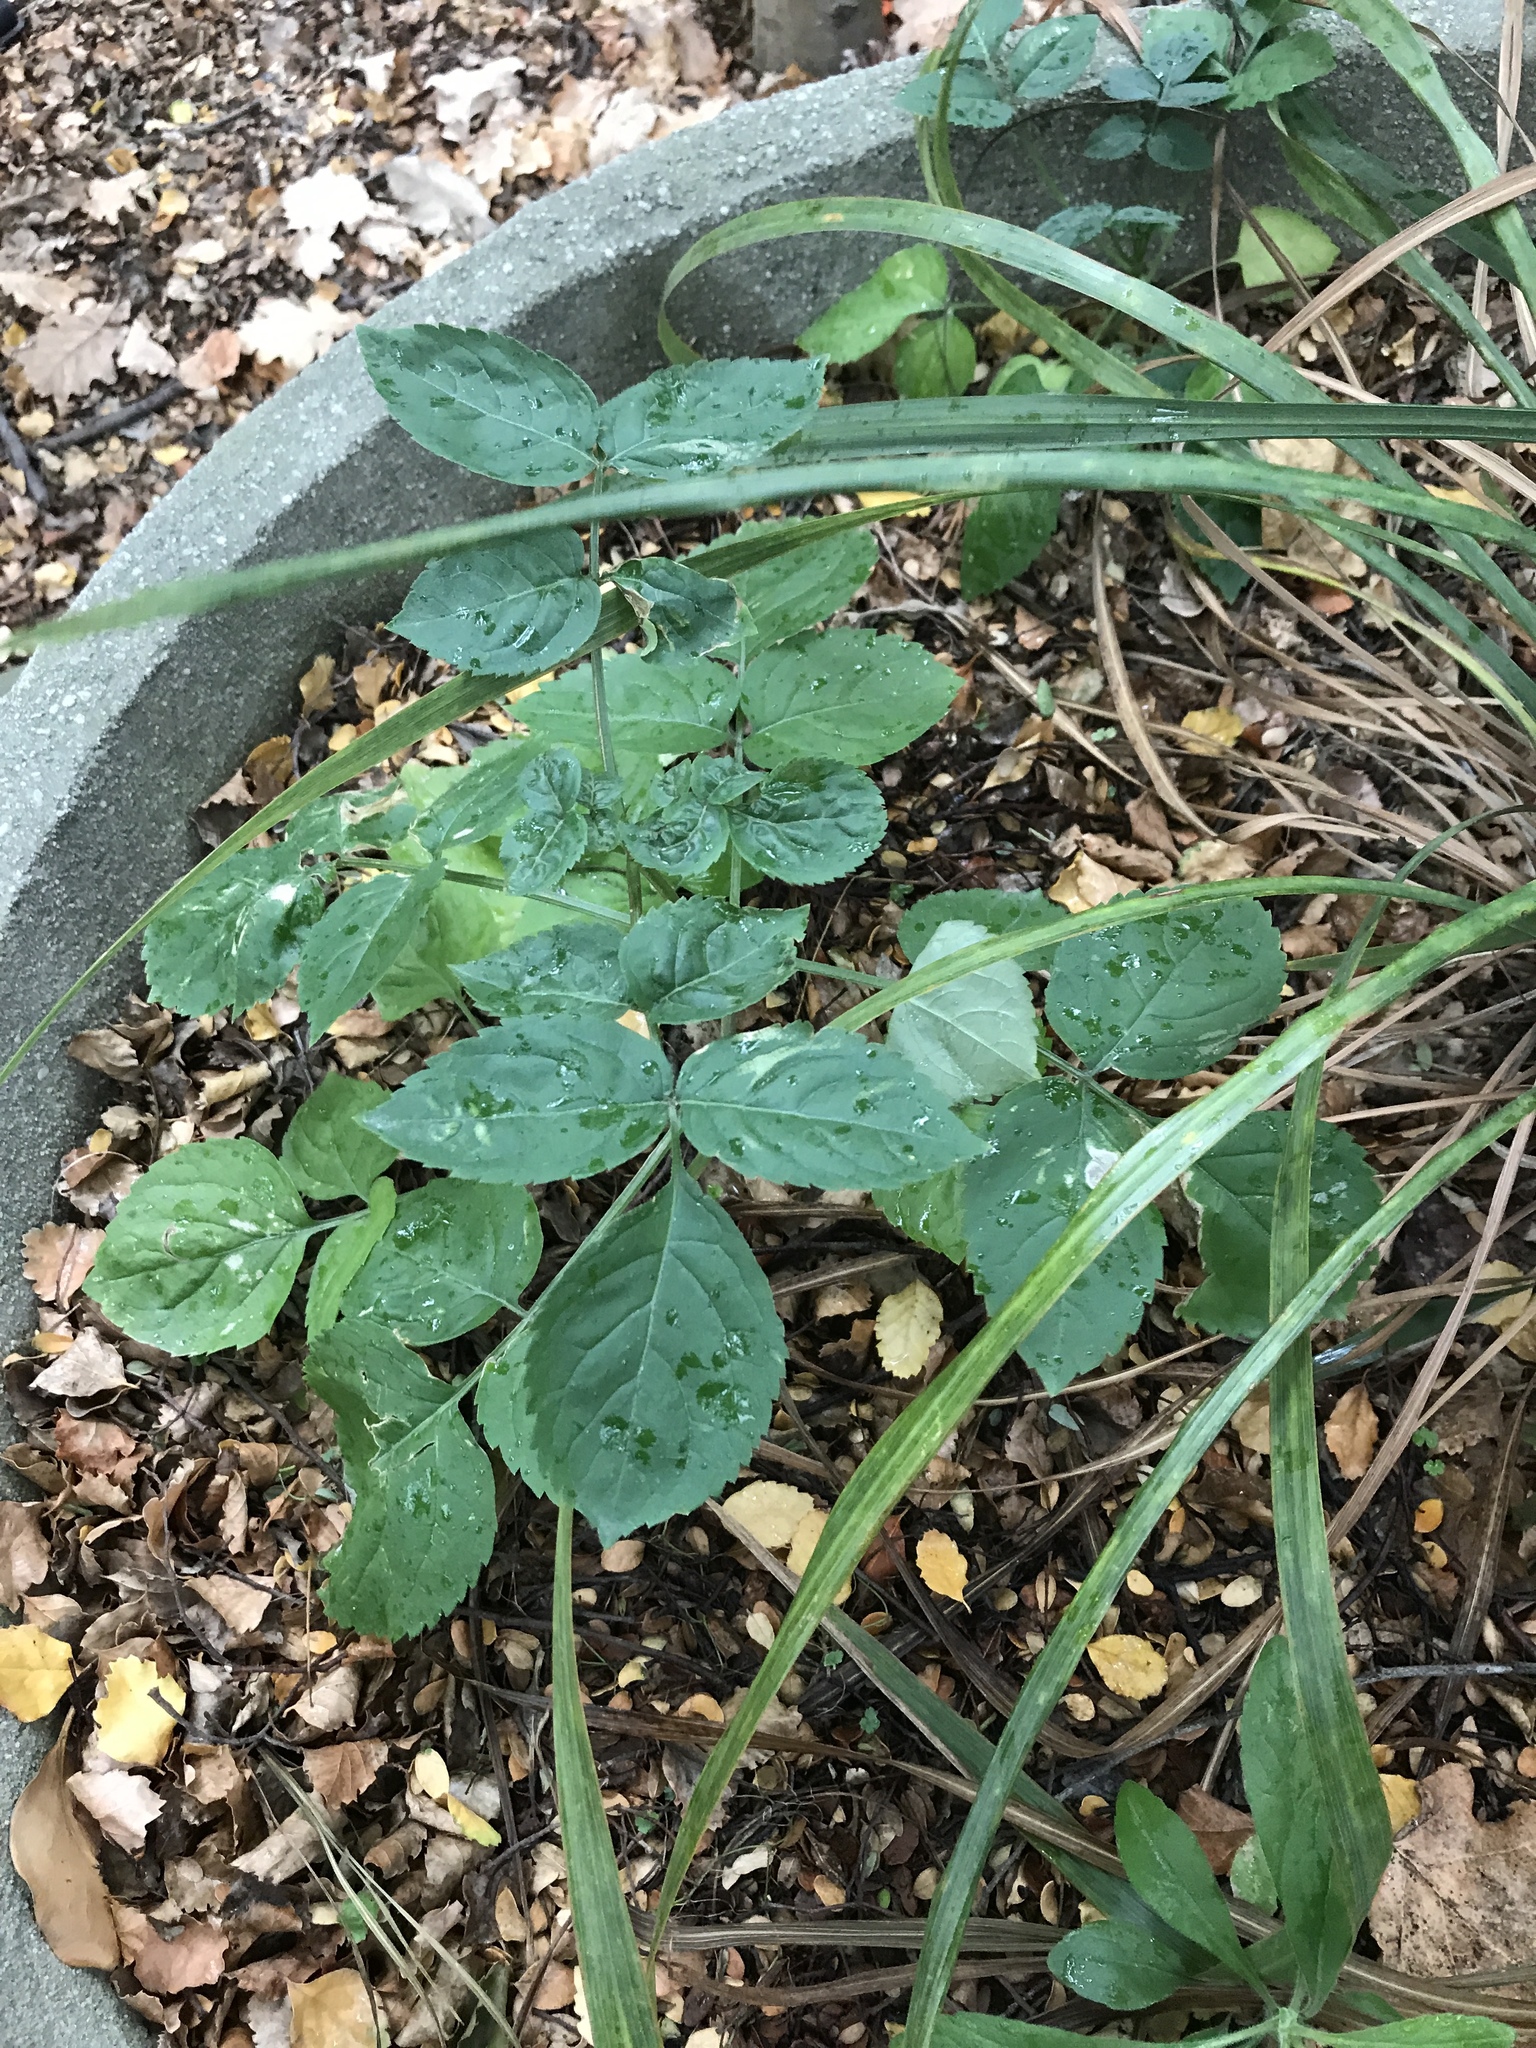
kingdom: Plantae
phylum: Tracheophyta
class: Magnoliopsida
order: Dipsacales
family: Viburnaceae
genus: Sambucus
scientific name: Sambucus nigra
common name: Elder
